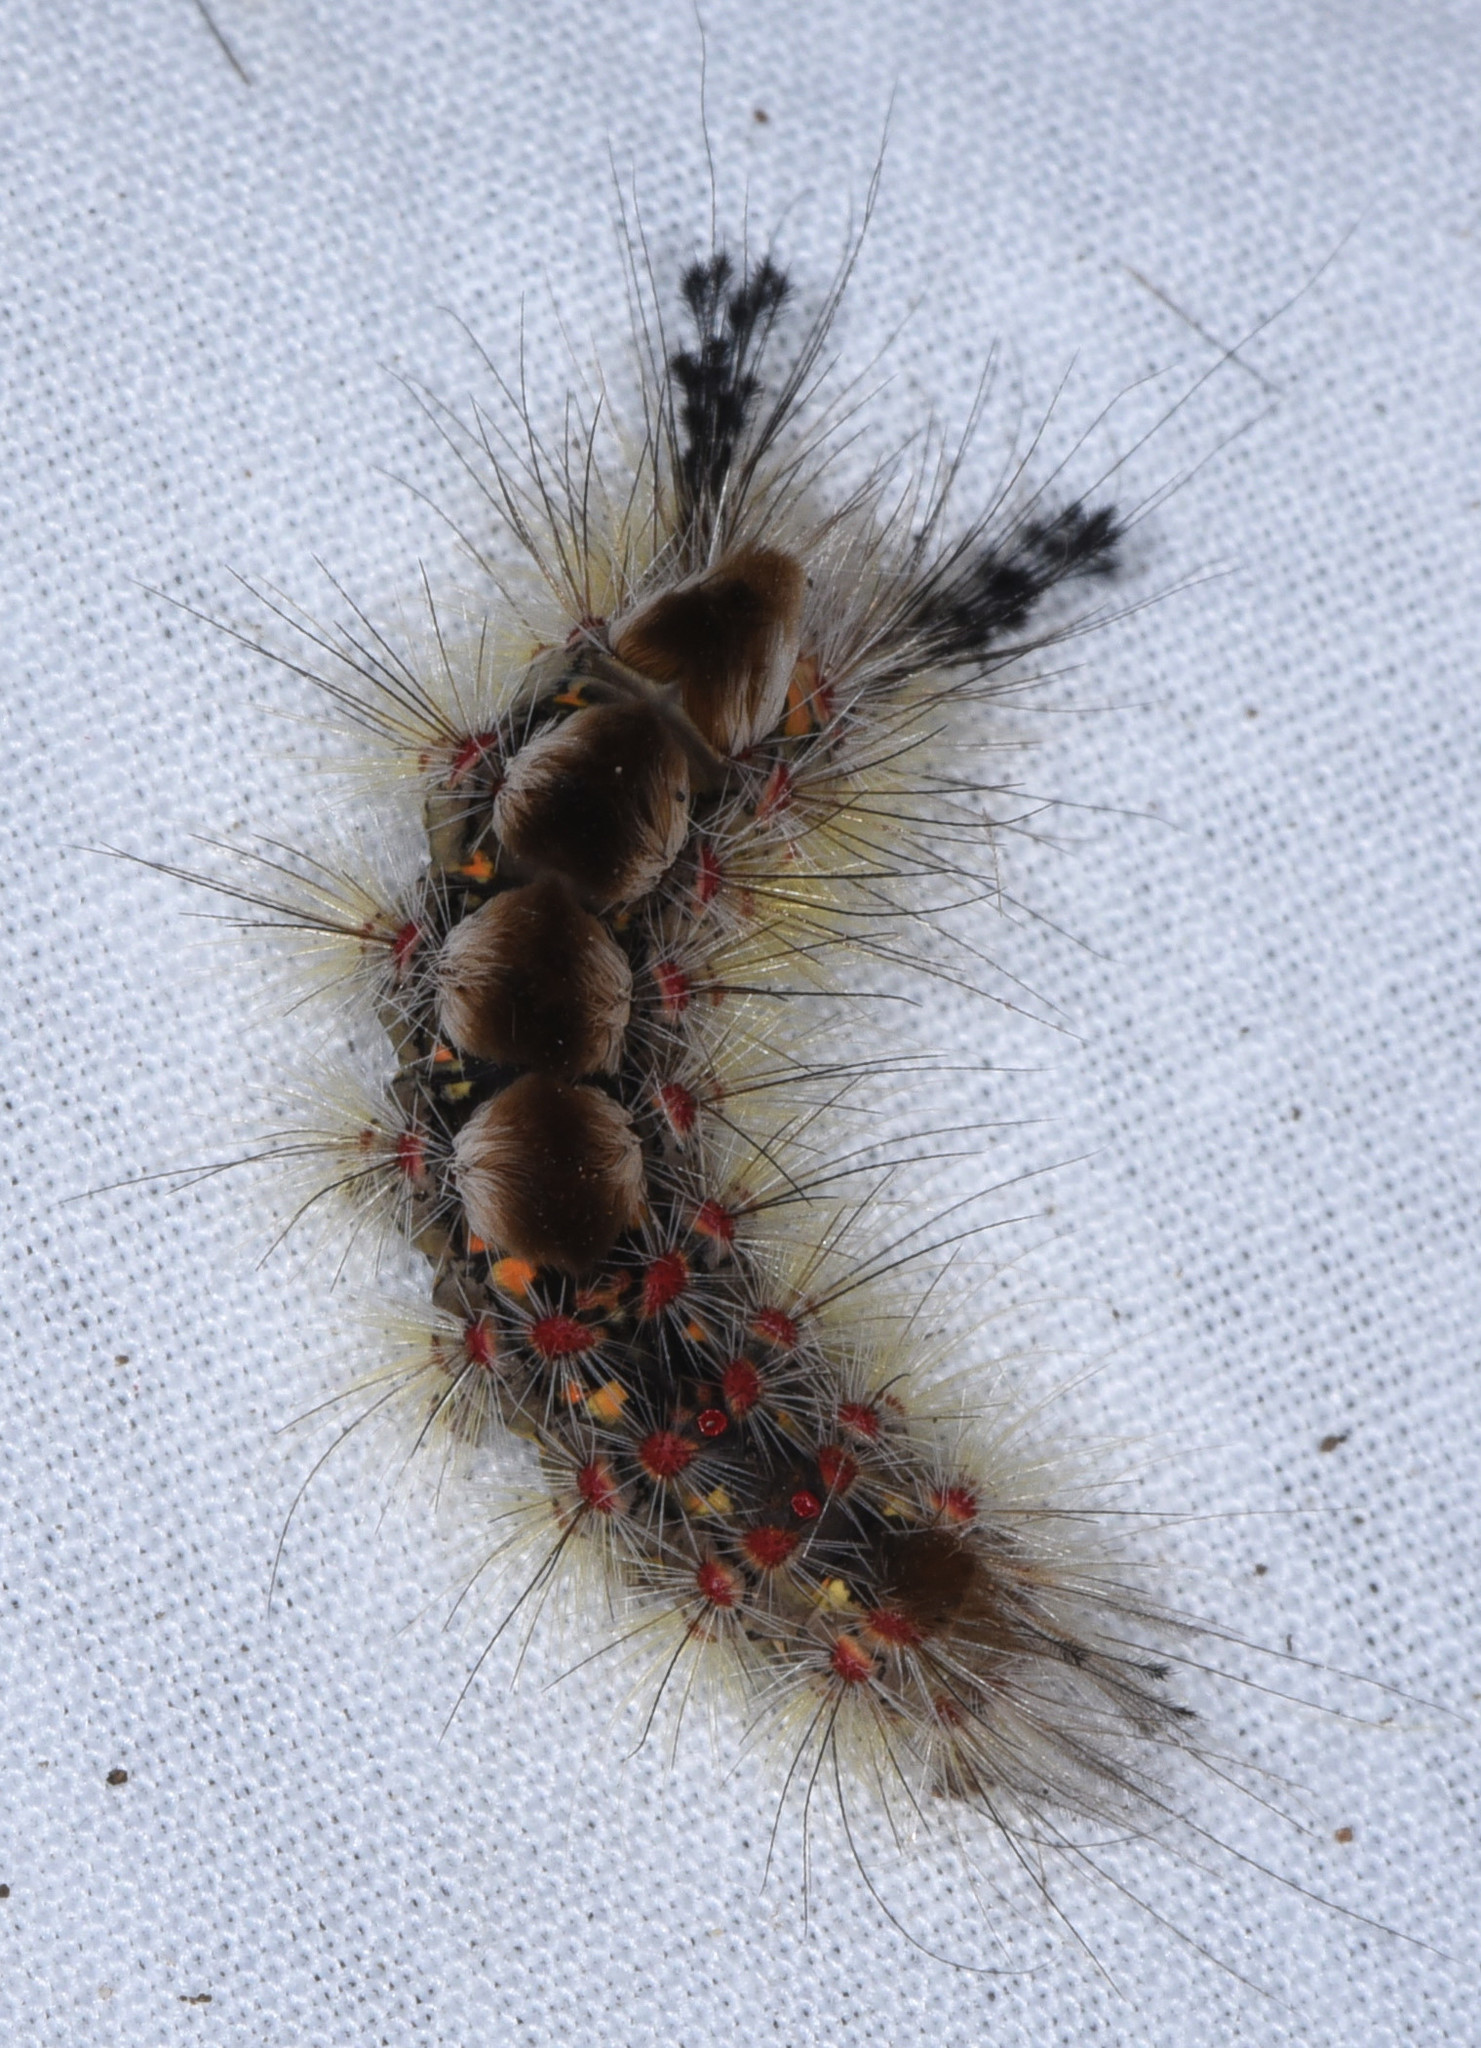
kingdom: Animalia
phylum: Arthropoda
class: Insecta
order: Lepidoptera
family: Erebidae
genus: Orgyia
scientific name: Orgyia vetusta
